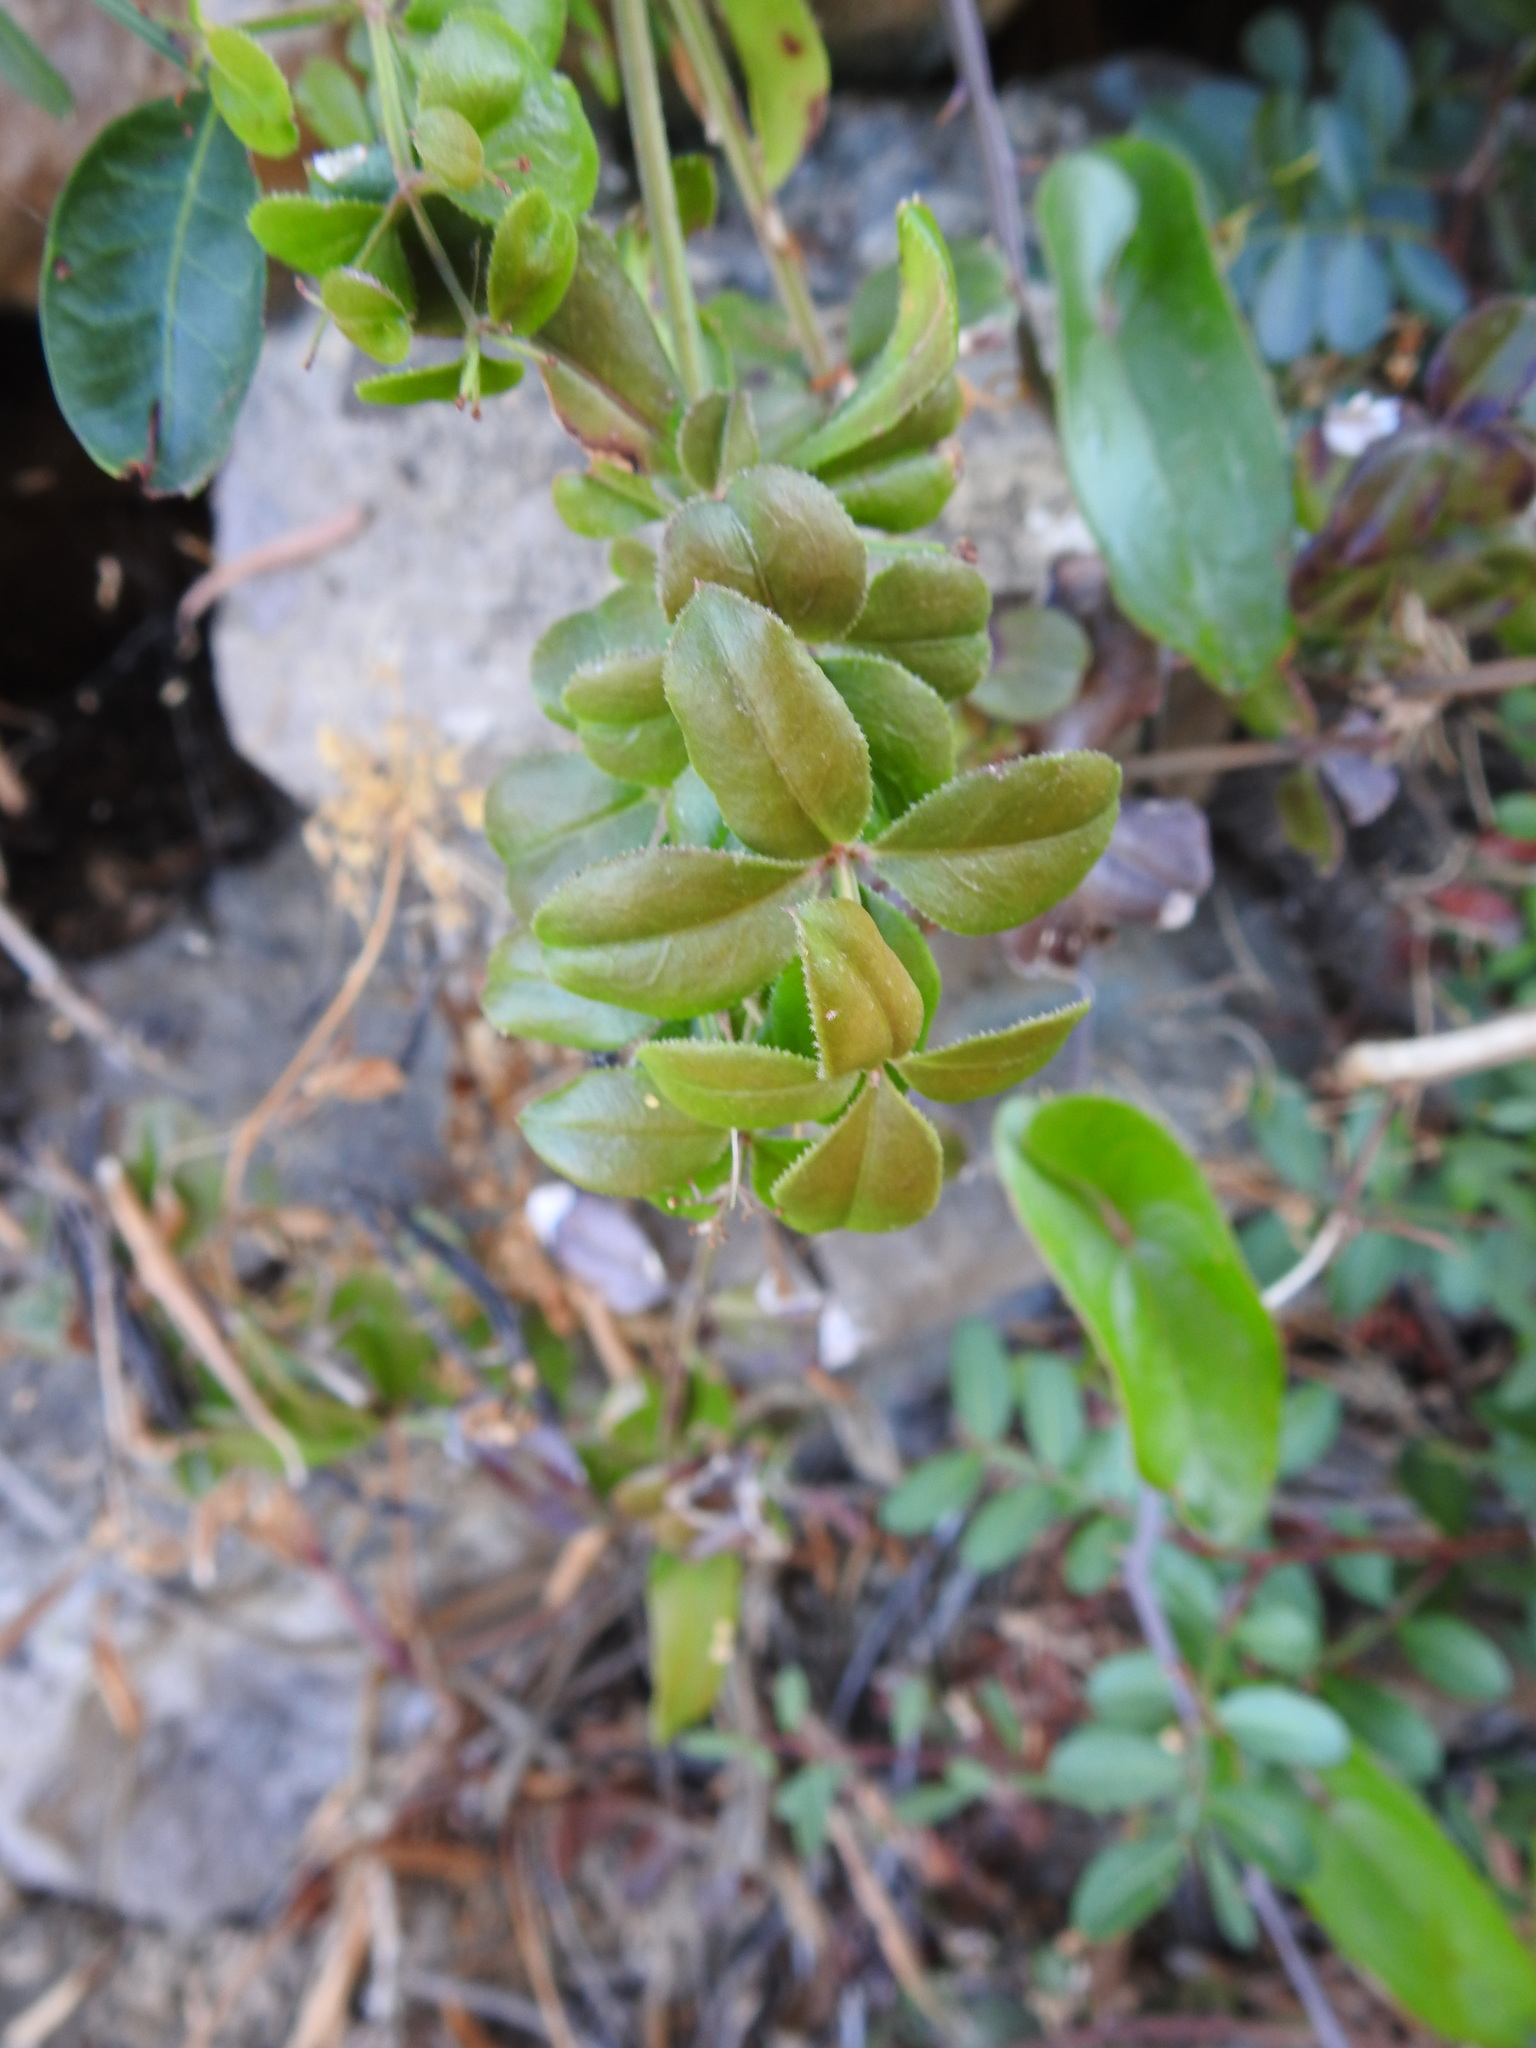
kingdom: Plantae
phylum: Tracheophyta
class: Magnoliopsida
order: Gentianales
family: Rubiaceae
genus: Rubia
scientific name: Rubia peregrina
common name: Wild madder
